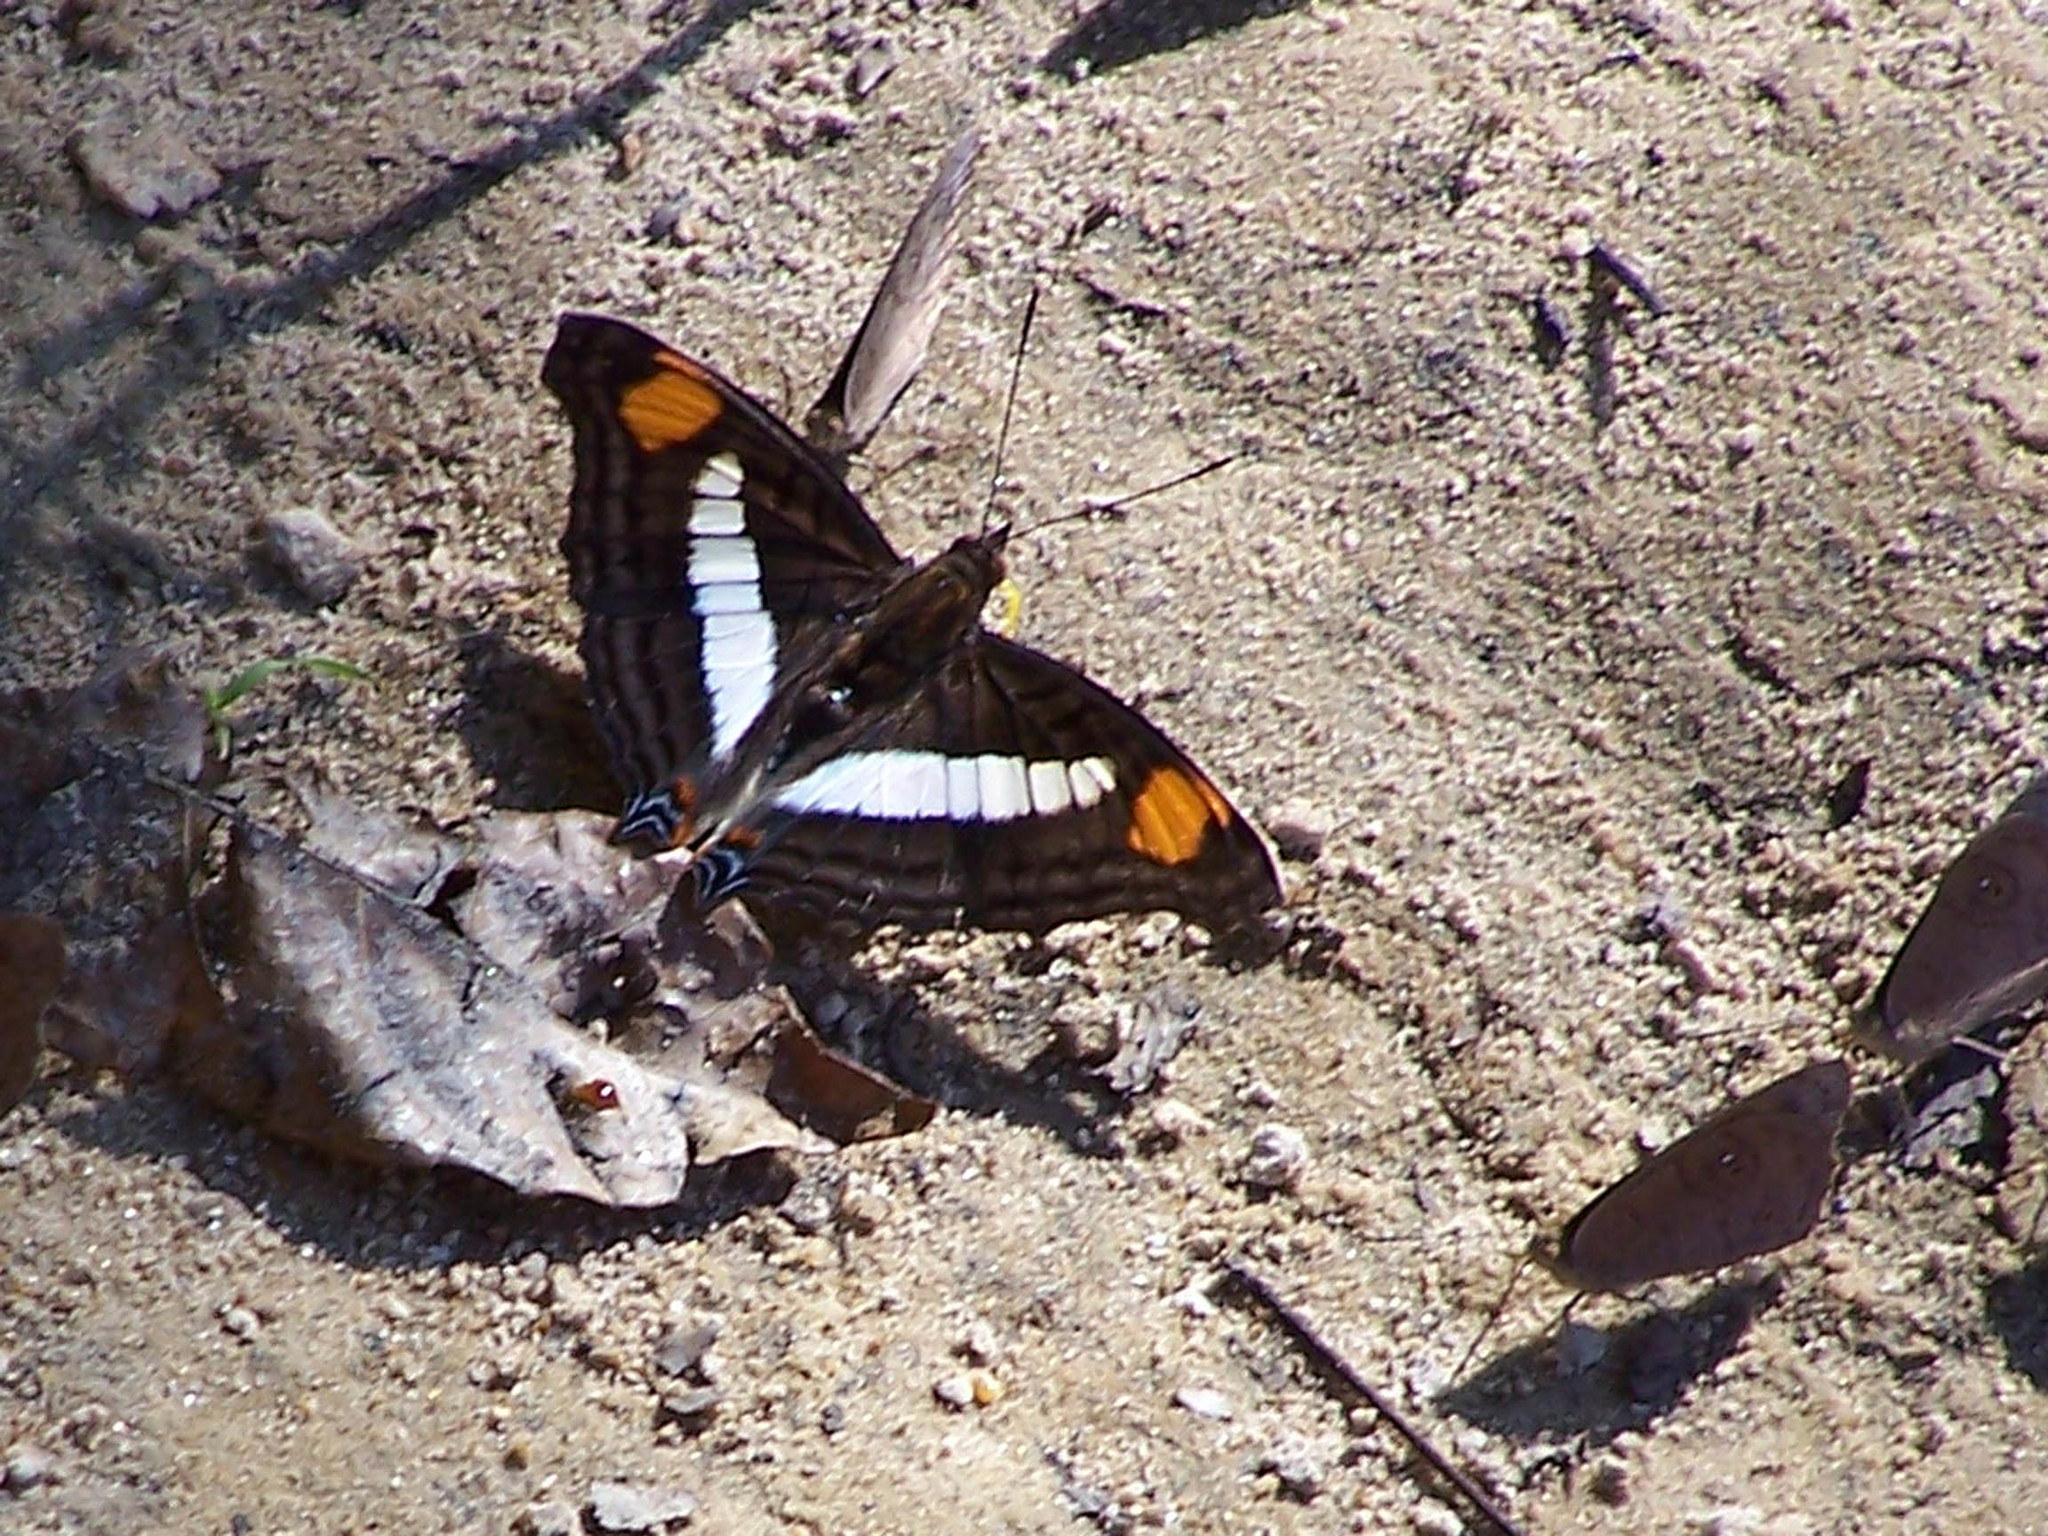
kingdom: Animalia
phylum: Arthropoda
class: Insecta
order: Lepidoptera
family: Nymphalidae
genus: Doxocopa
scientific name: Doxocopa linda
